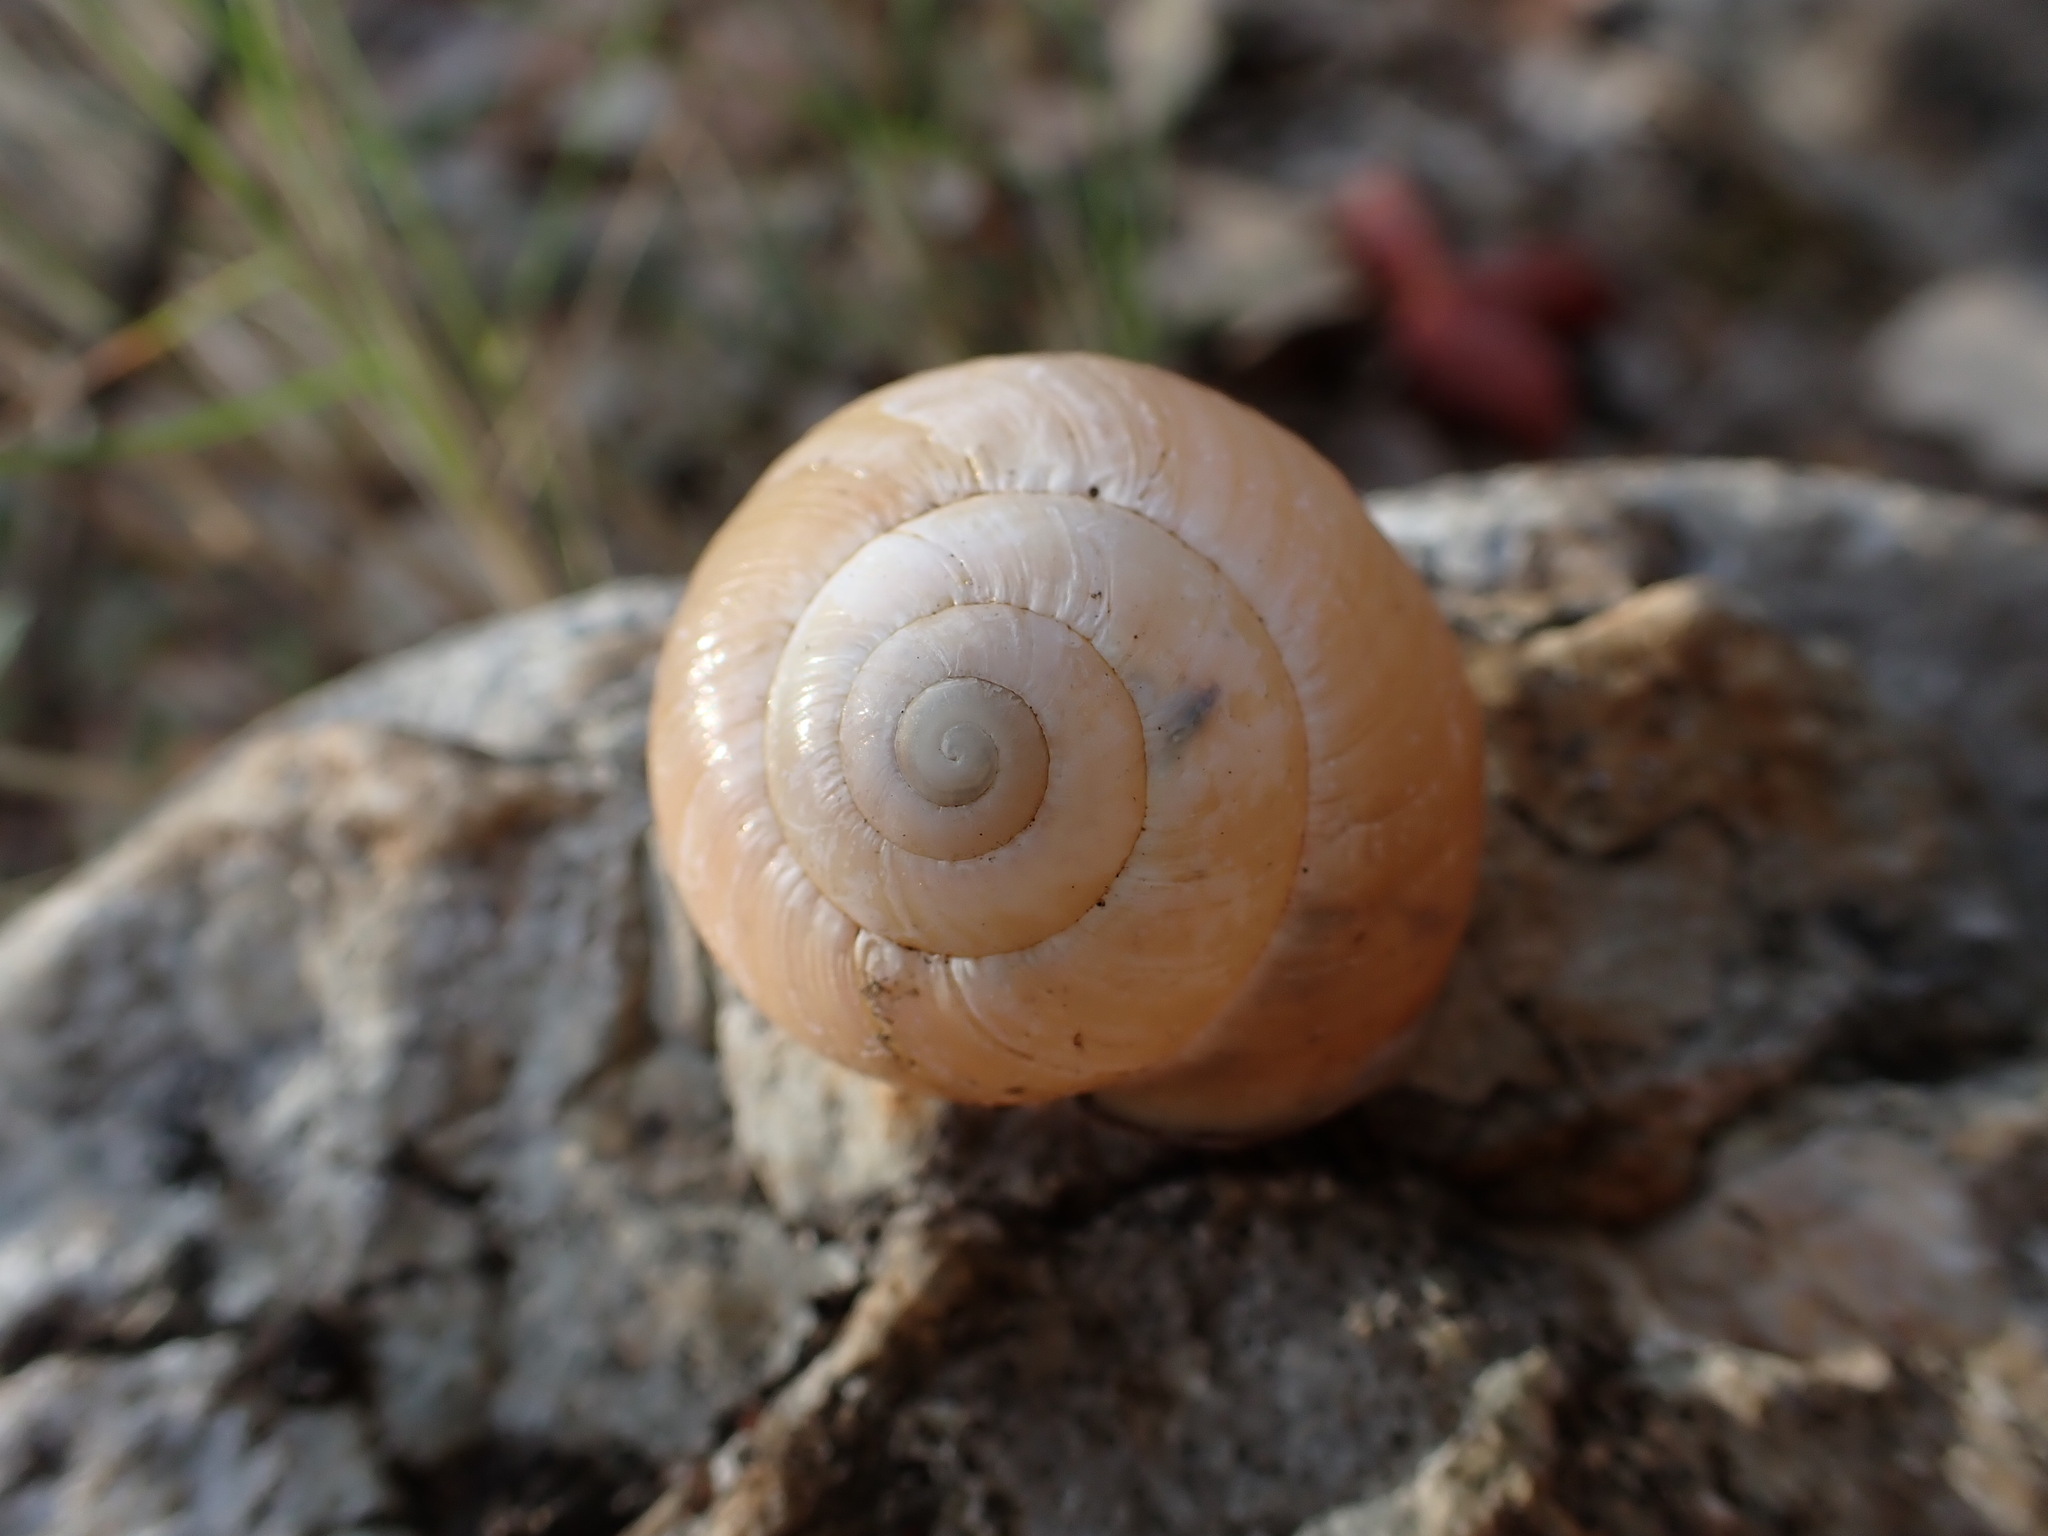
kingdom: Animalia
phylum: Mollusca
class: Gastropoda
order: Stylommatophora
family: Helicidae
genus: Cepaea
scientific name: Cepaea nemoralis
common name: Grovesnail
